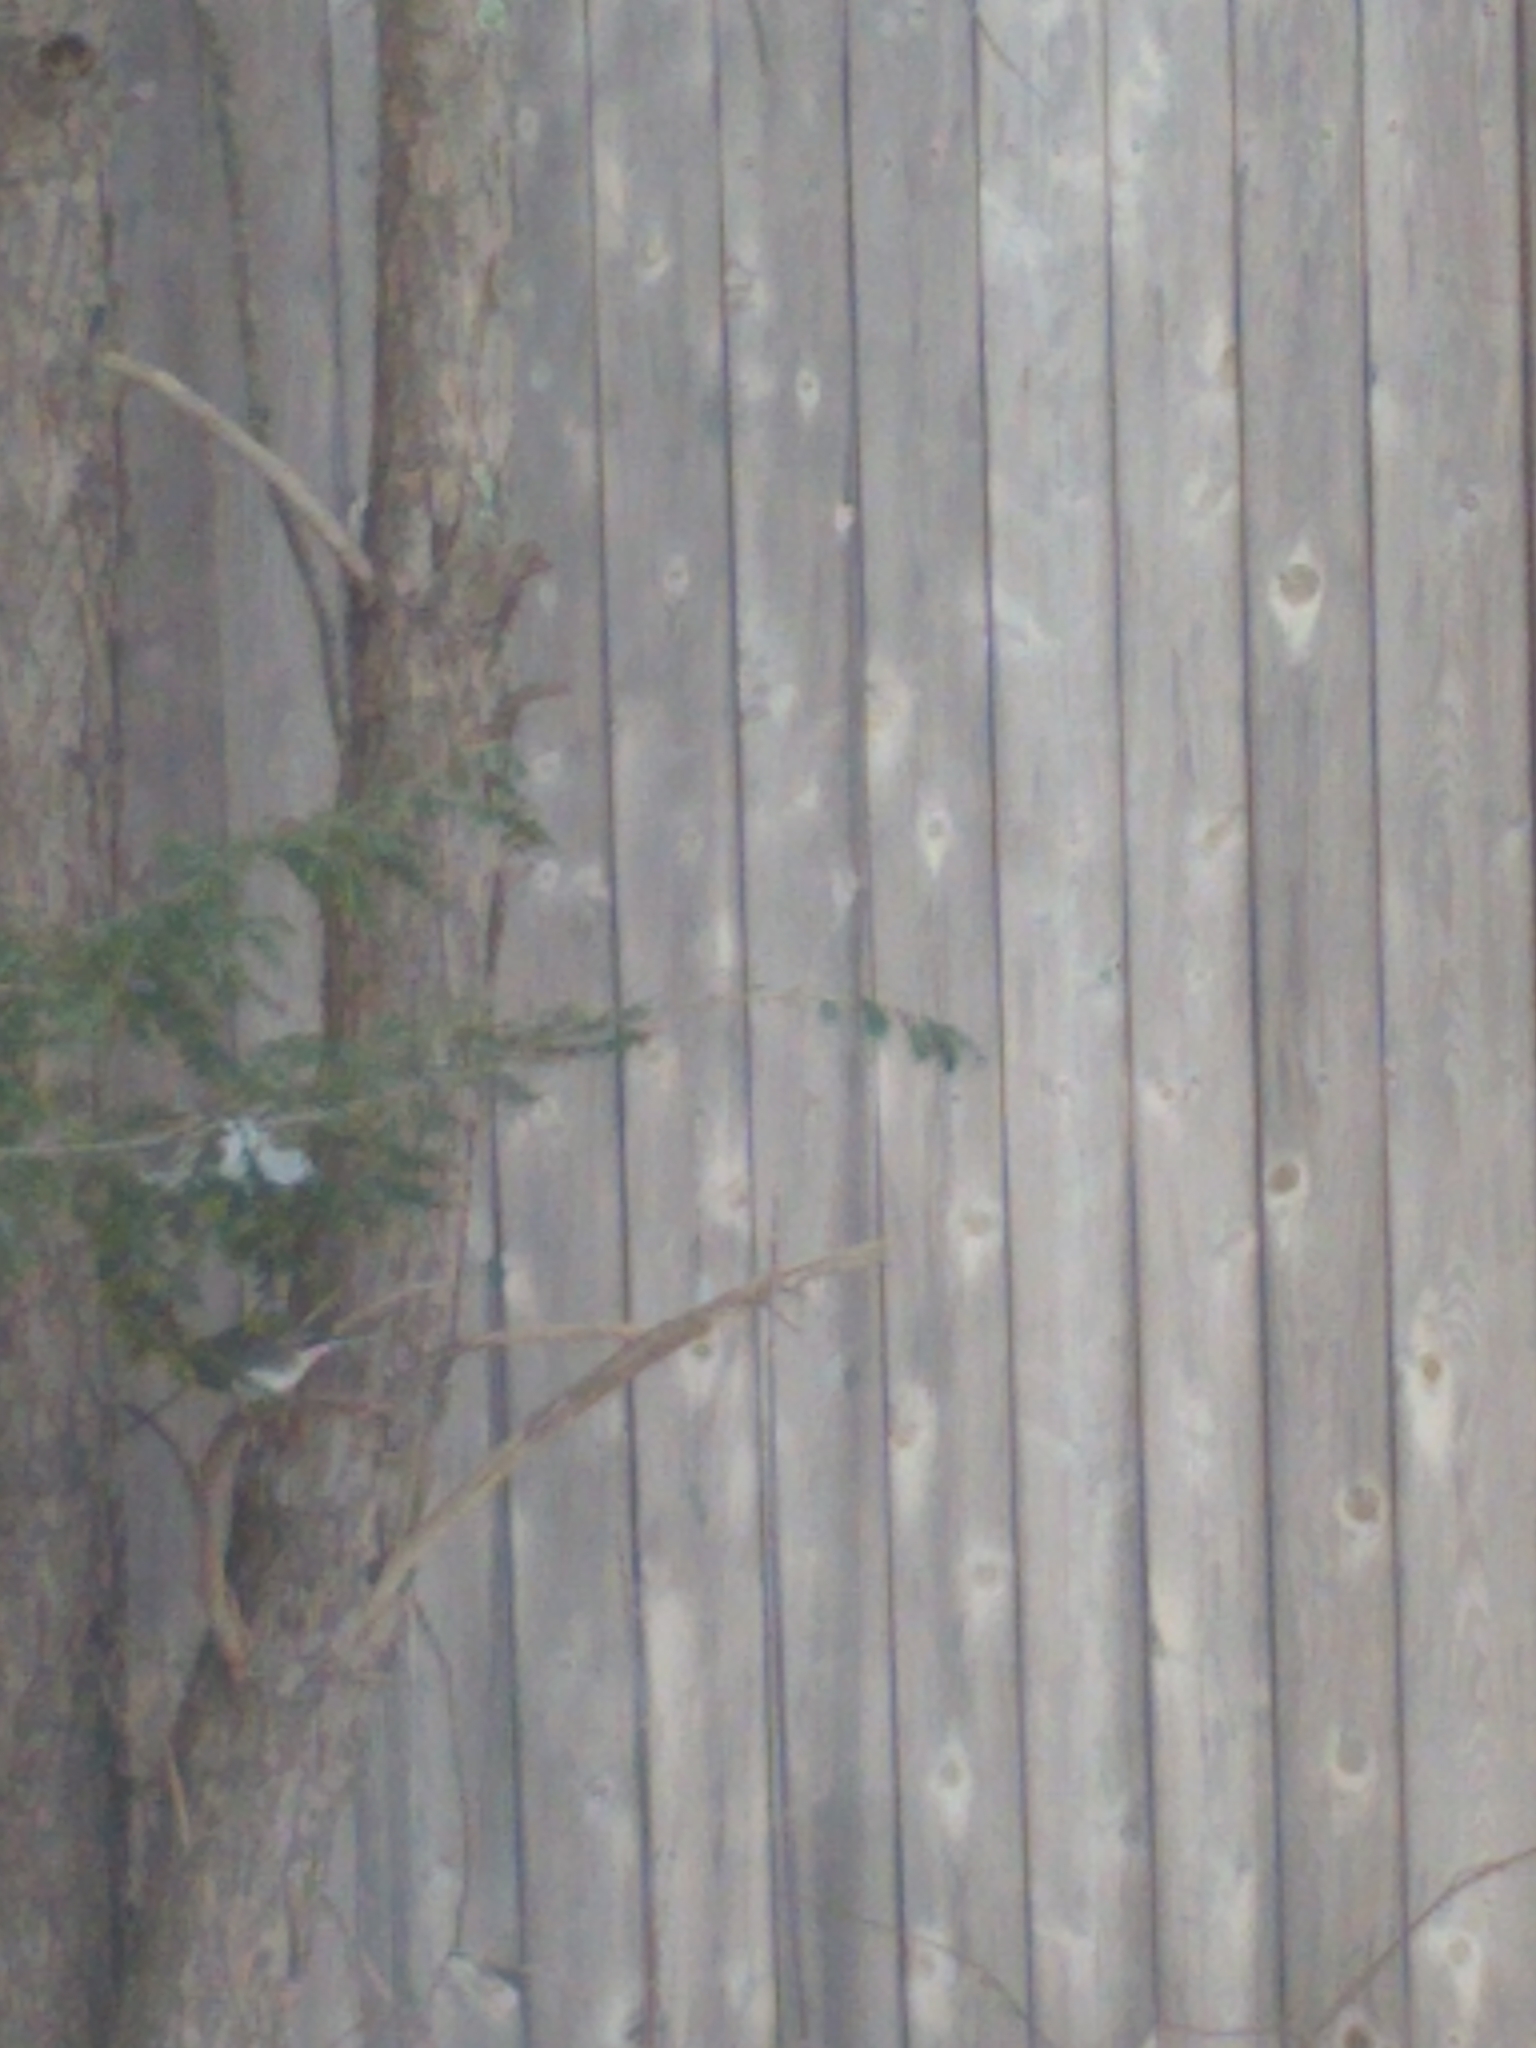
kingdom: Animalia
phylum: Chordata
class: Aves
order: Passeriformes
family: Passerellidae
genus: Junco
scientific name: Junco hyemalis
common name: Dark-eyed junco
